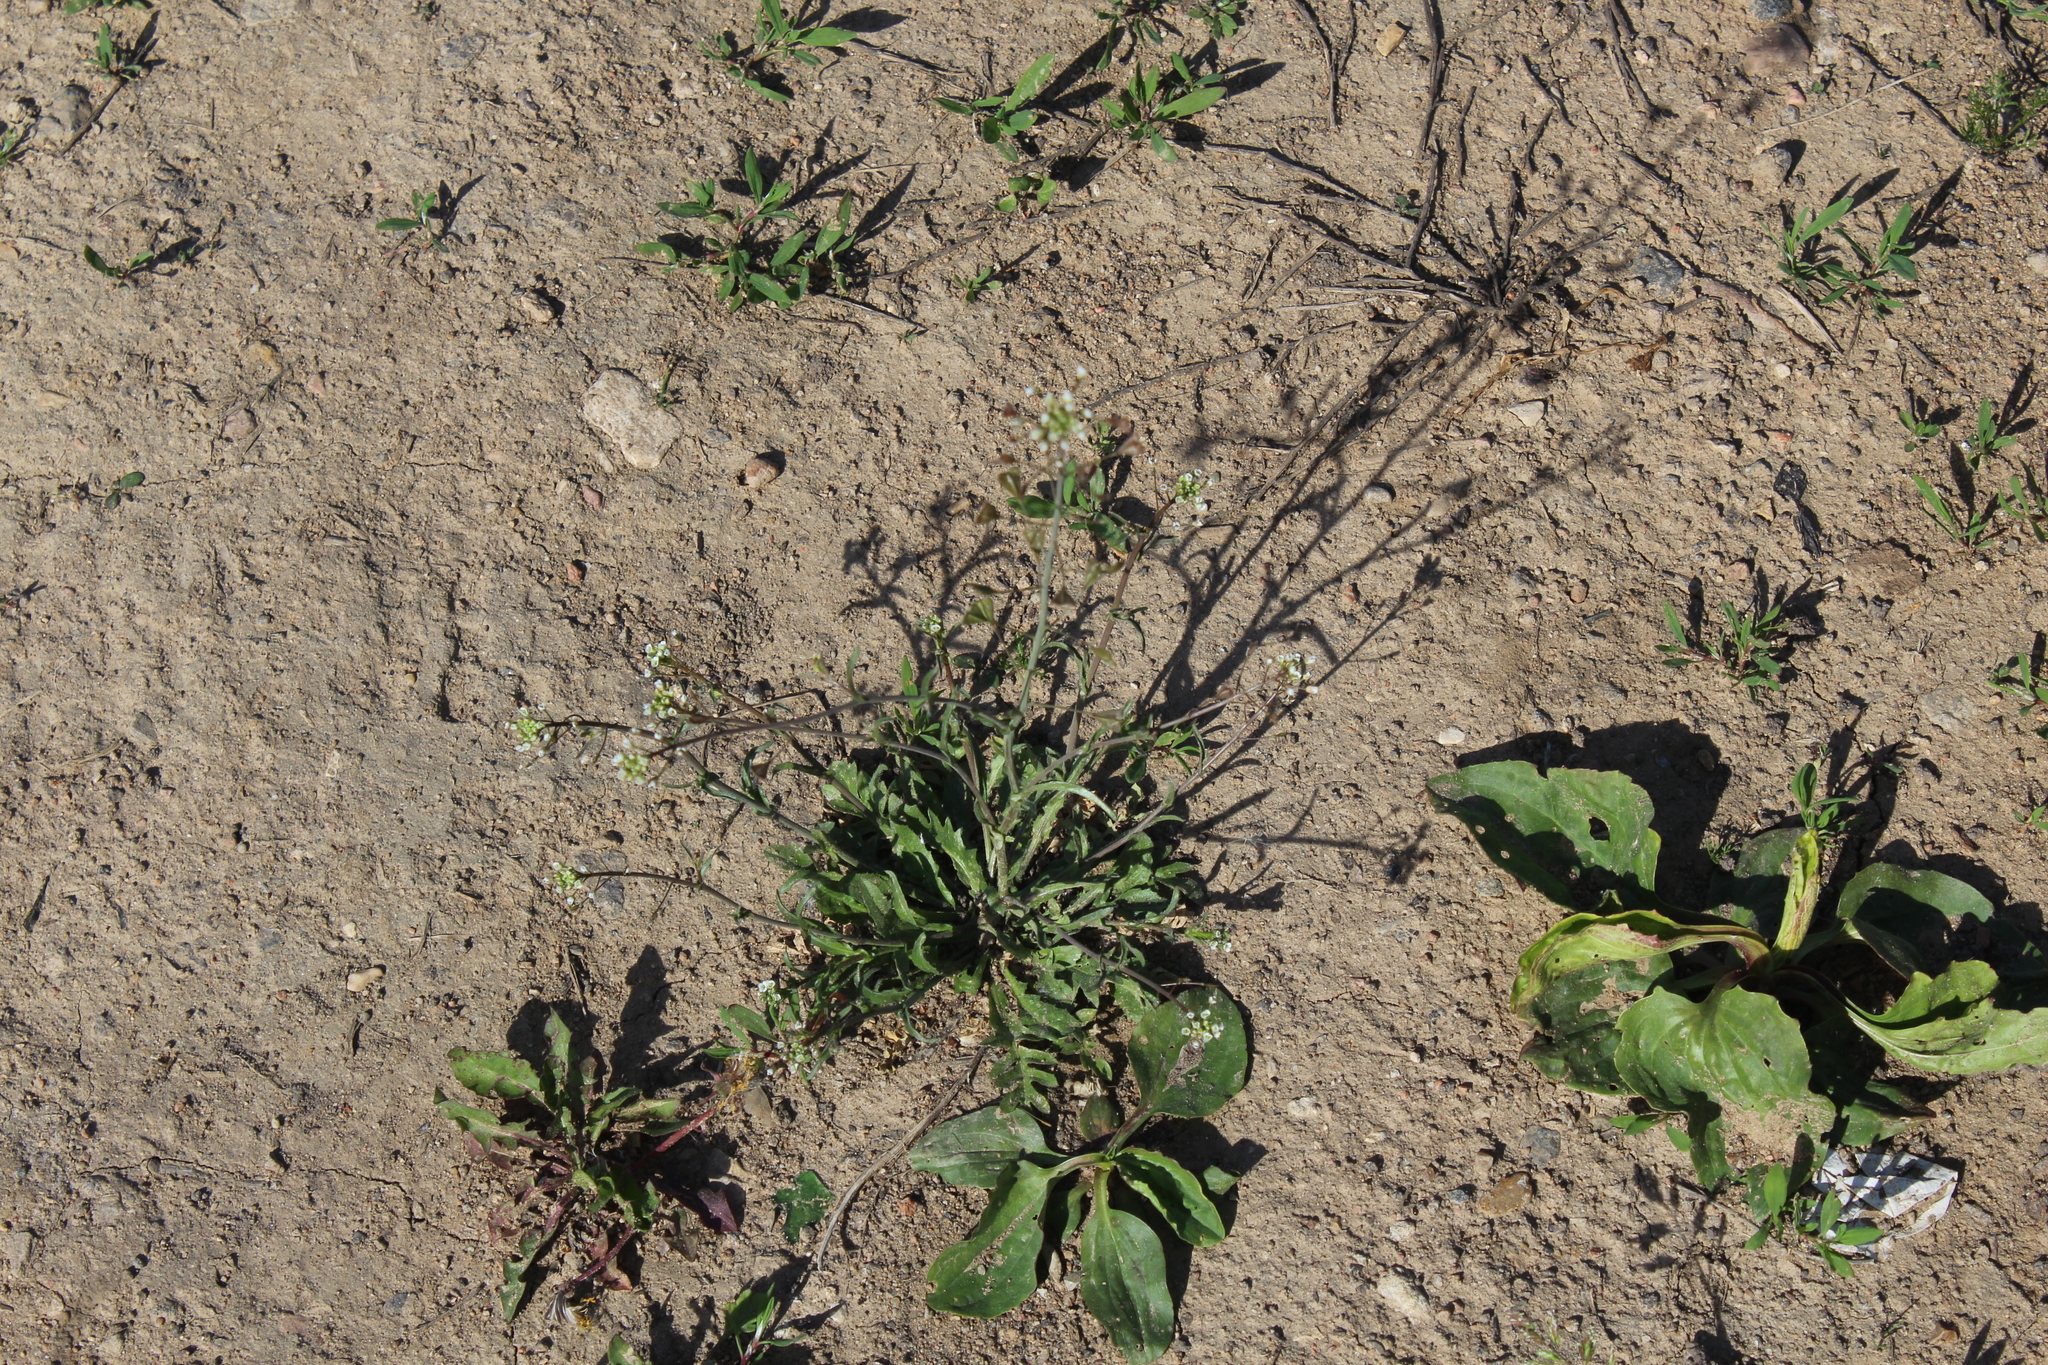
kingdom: Plantae
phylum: Tracheophyta
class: Magnoliopsida
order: Brassicales
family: Brassicaceae
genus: Capsella
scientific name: Capsella bursa-pastoris
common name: Shepherd's purse
